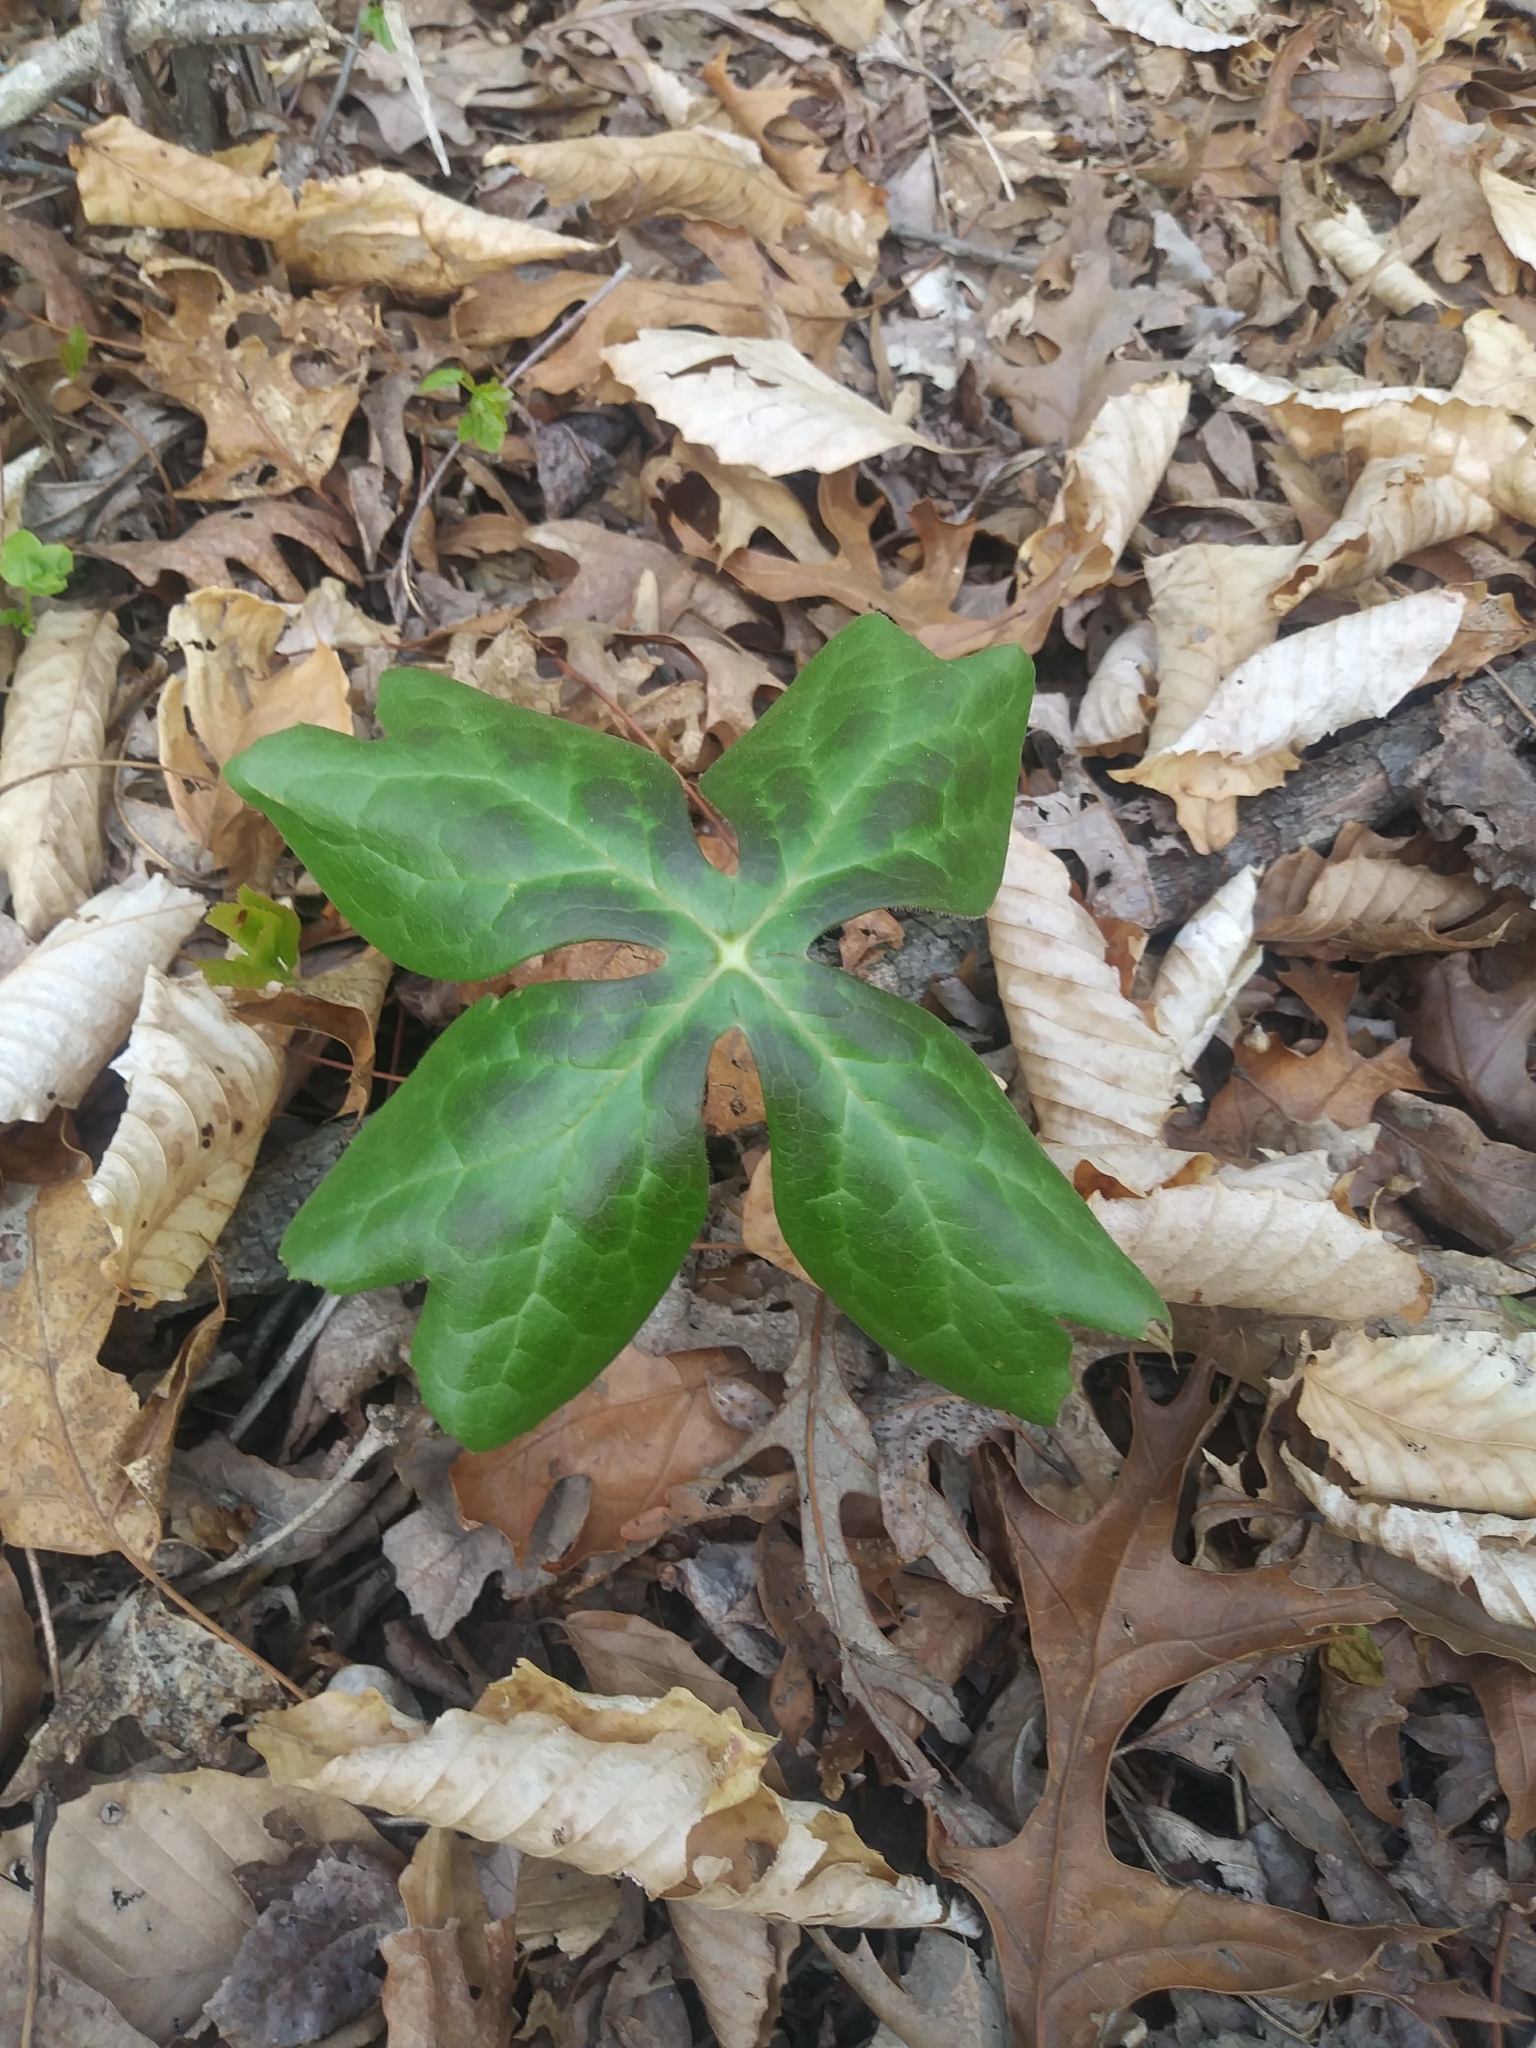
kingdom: Plantae
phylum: Tracheophyta
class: Magnoliopsida
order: Ranunculales
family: Berberidaceae
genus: Podophyllum
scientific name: Podophyllum peltatum
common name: Wild mandrake
